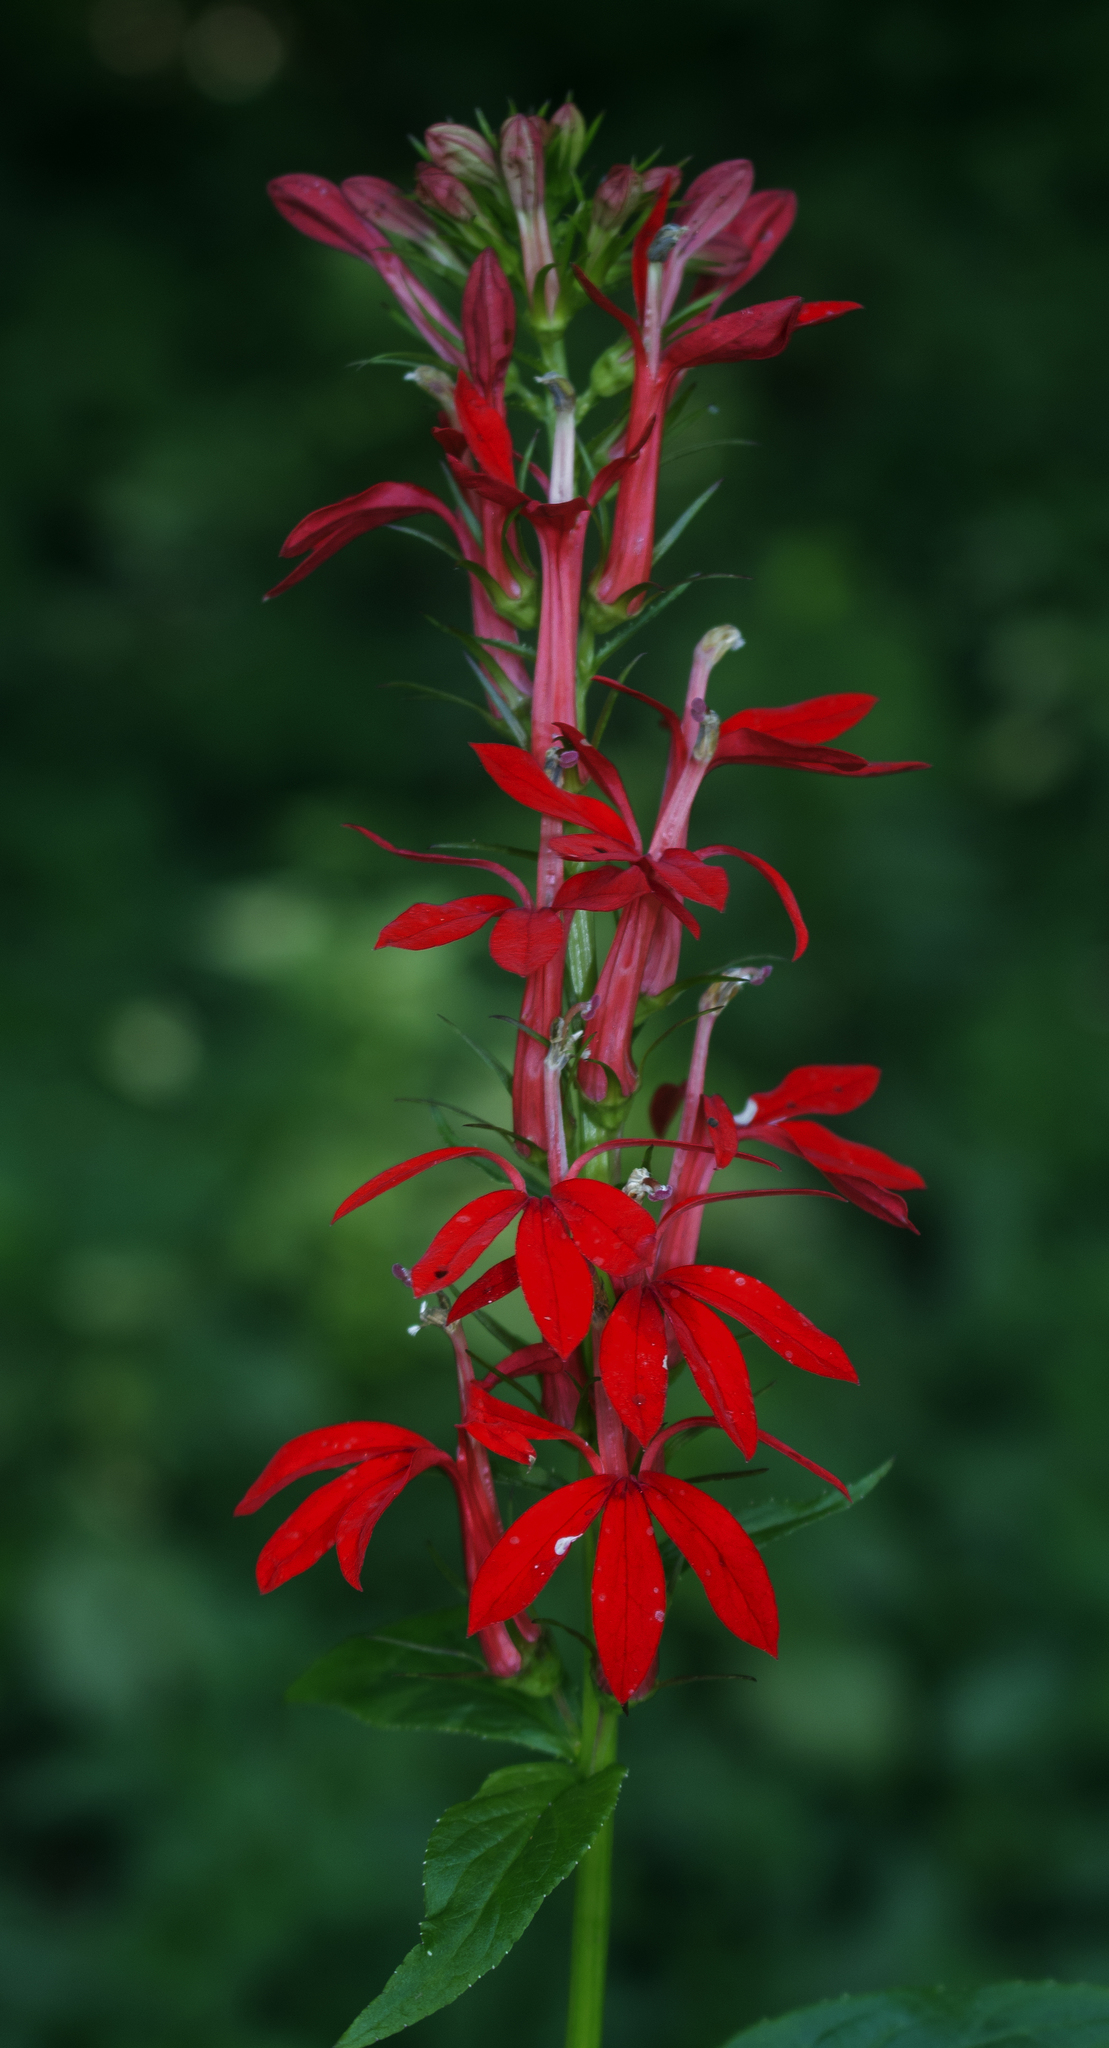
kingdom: Plantae
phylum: Tracheophyta
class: Magnoliopsida
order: Asterales
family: Campanulaceae
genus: Lobelia
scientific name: Lobelia cardinalis
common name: Cardinal flower
